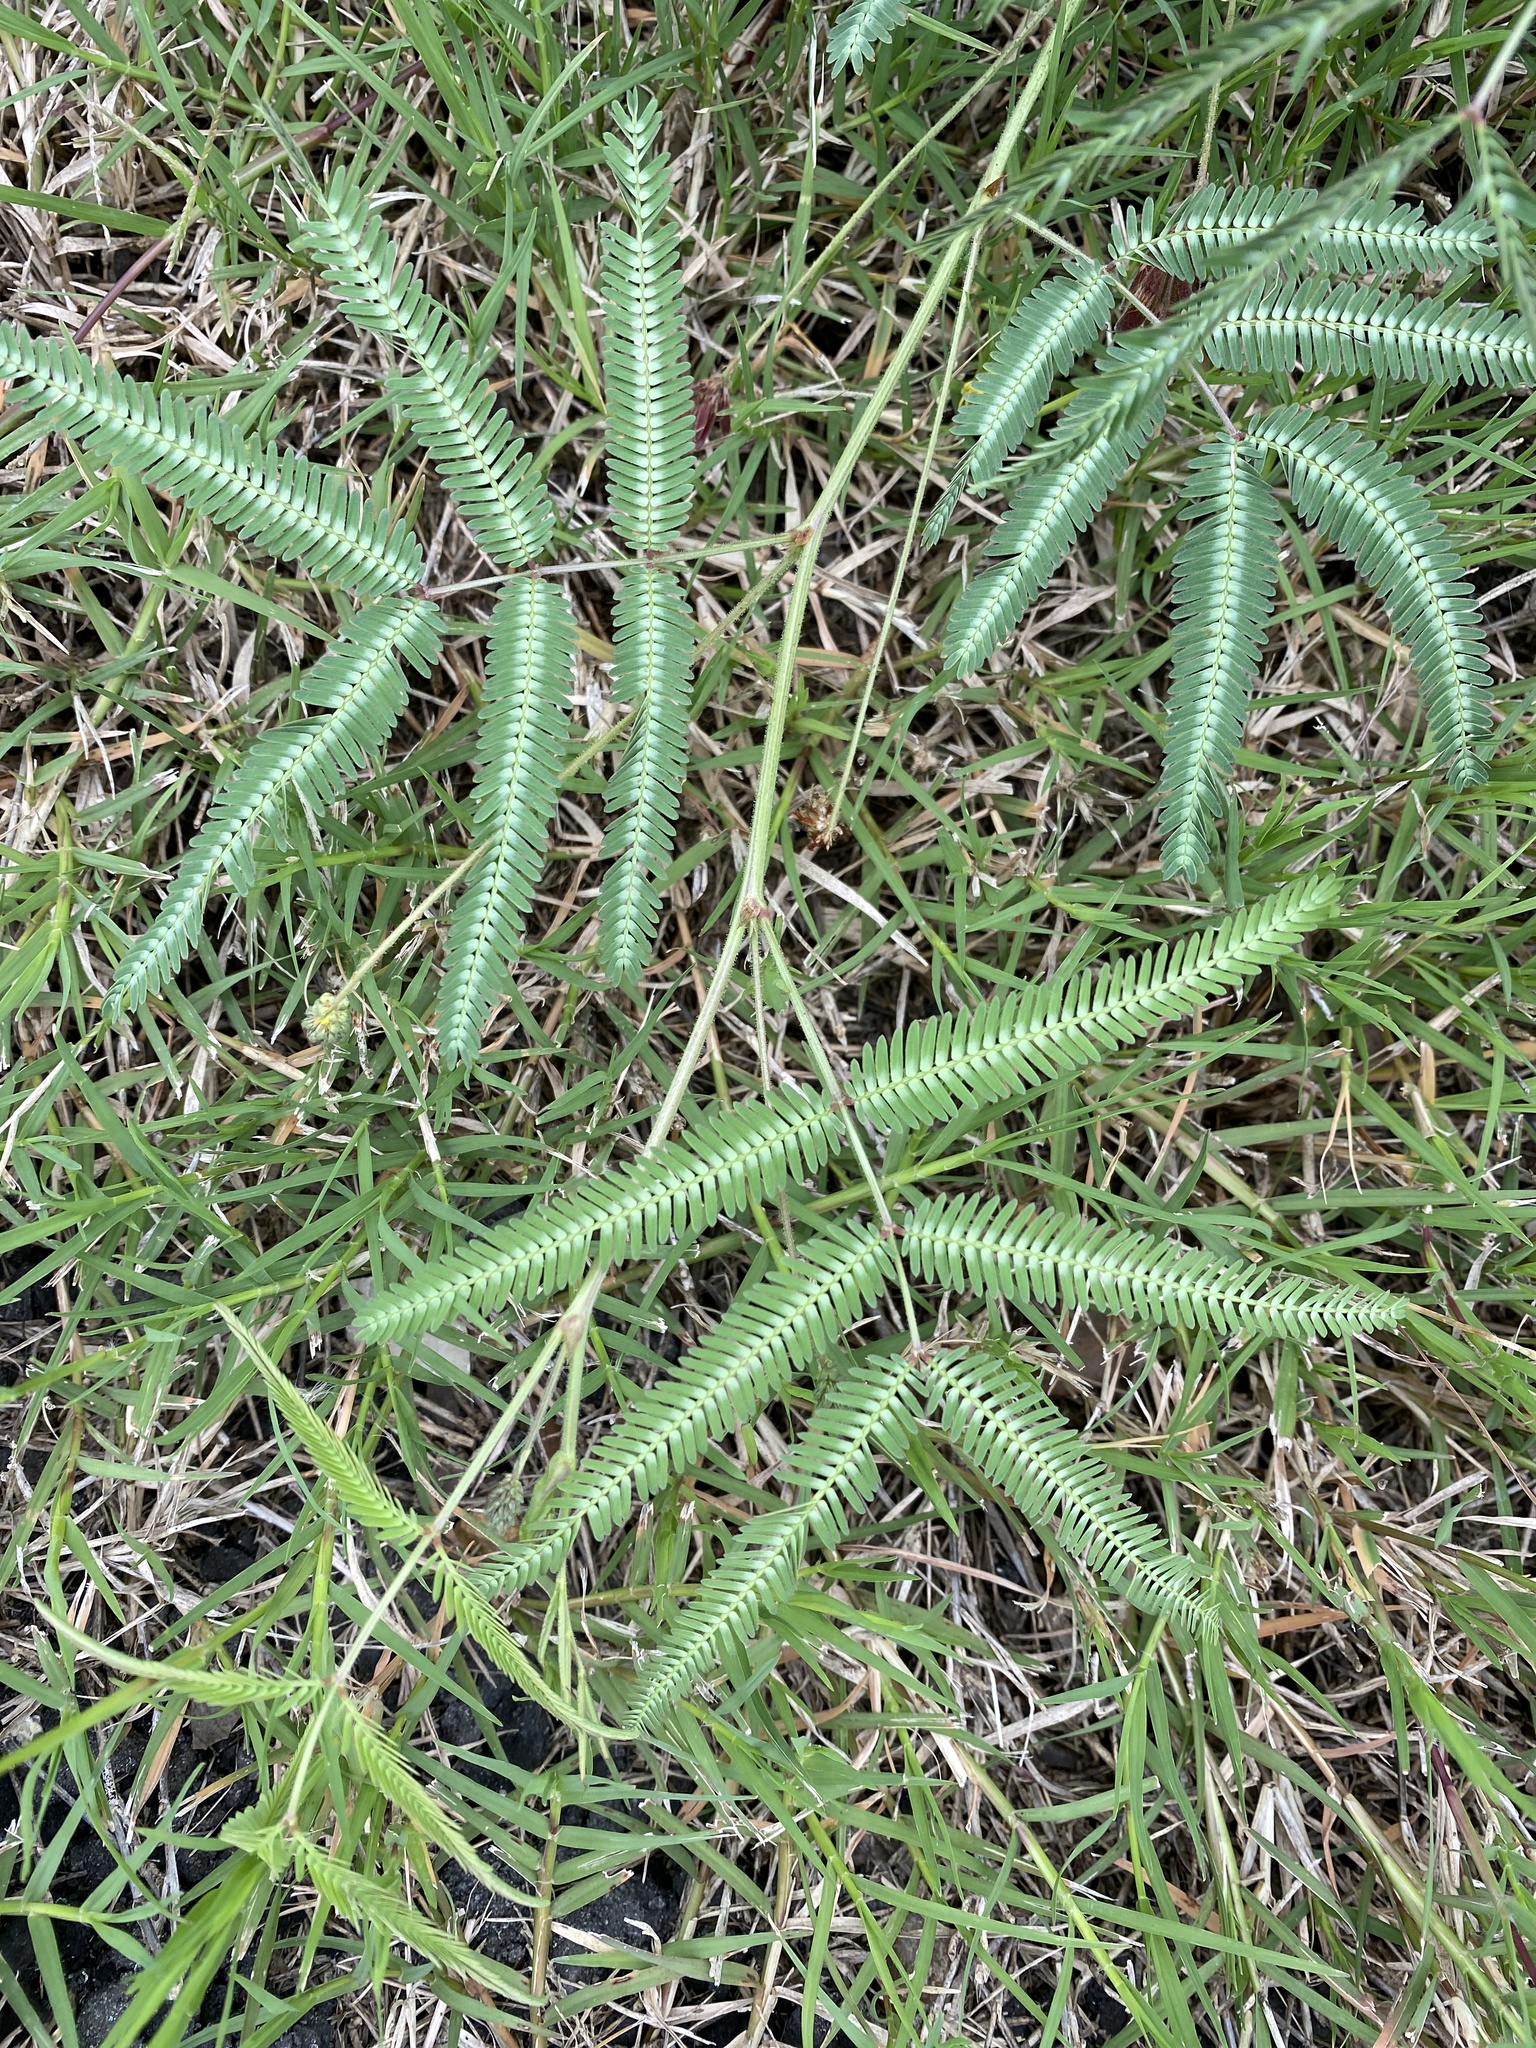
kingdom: Plantae
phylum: Tracheophyta
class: Magnoliopsida
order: Fabales
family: Fabaceae
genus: Neptunia
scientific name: Neptunia pubescens
